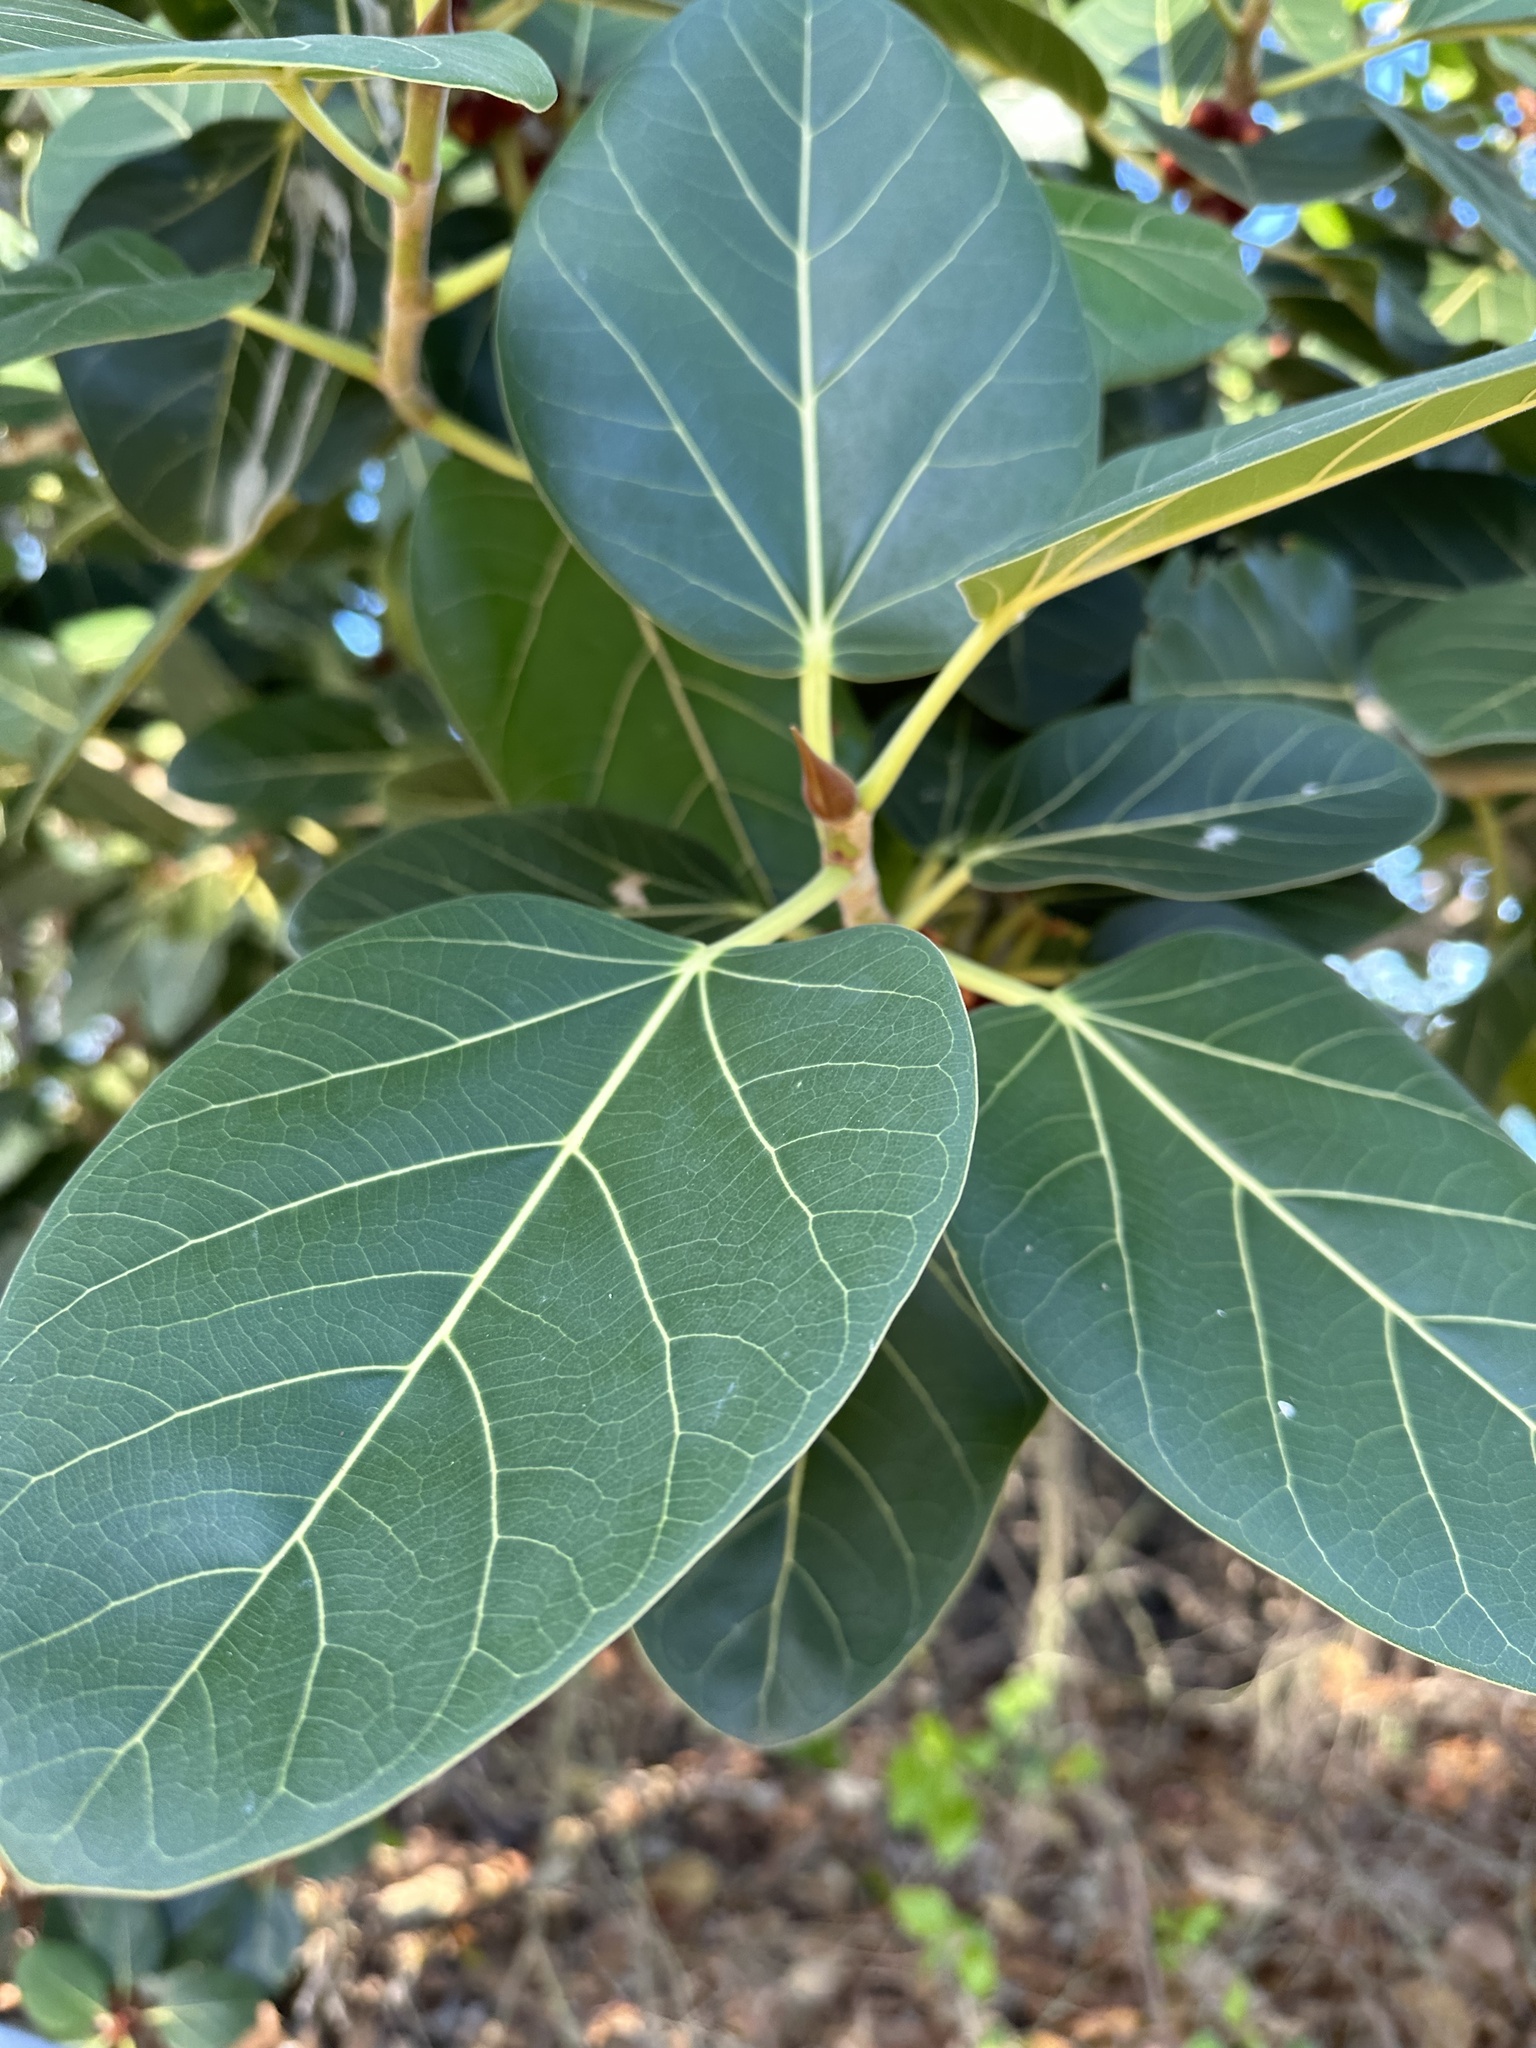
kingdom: Plantae
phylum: Tracheophyta
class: Magnoliopsida
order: Rosales
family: Moraceae
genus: Ficus
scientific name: Ficus benghalensis
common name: Indian banyan
